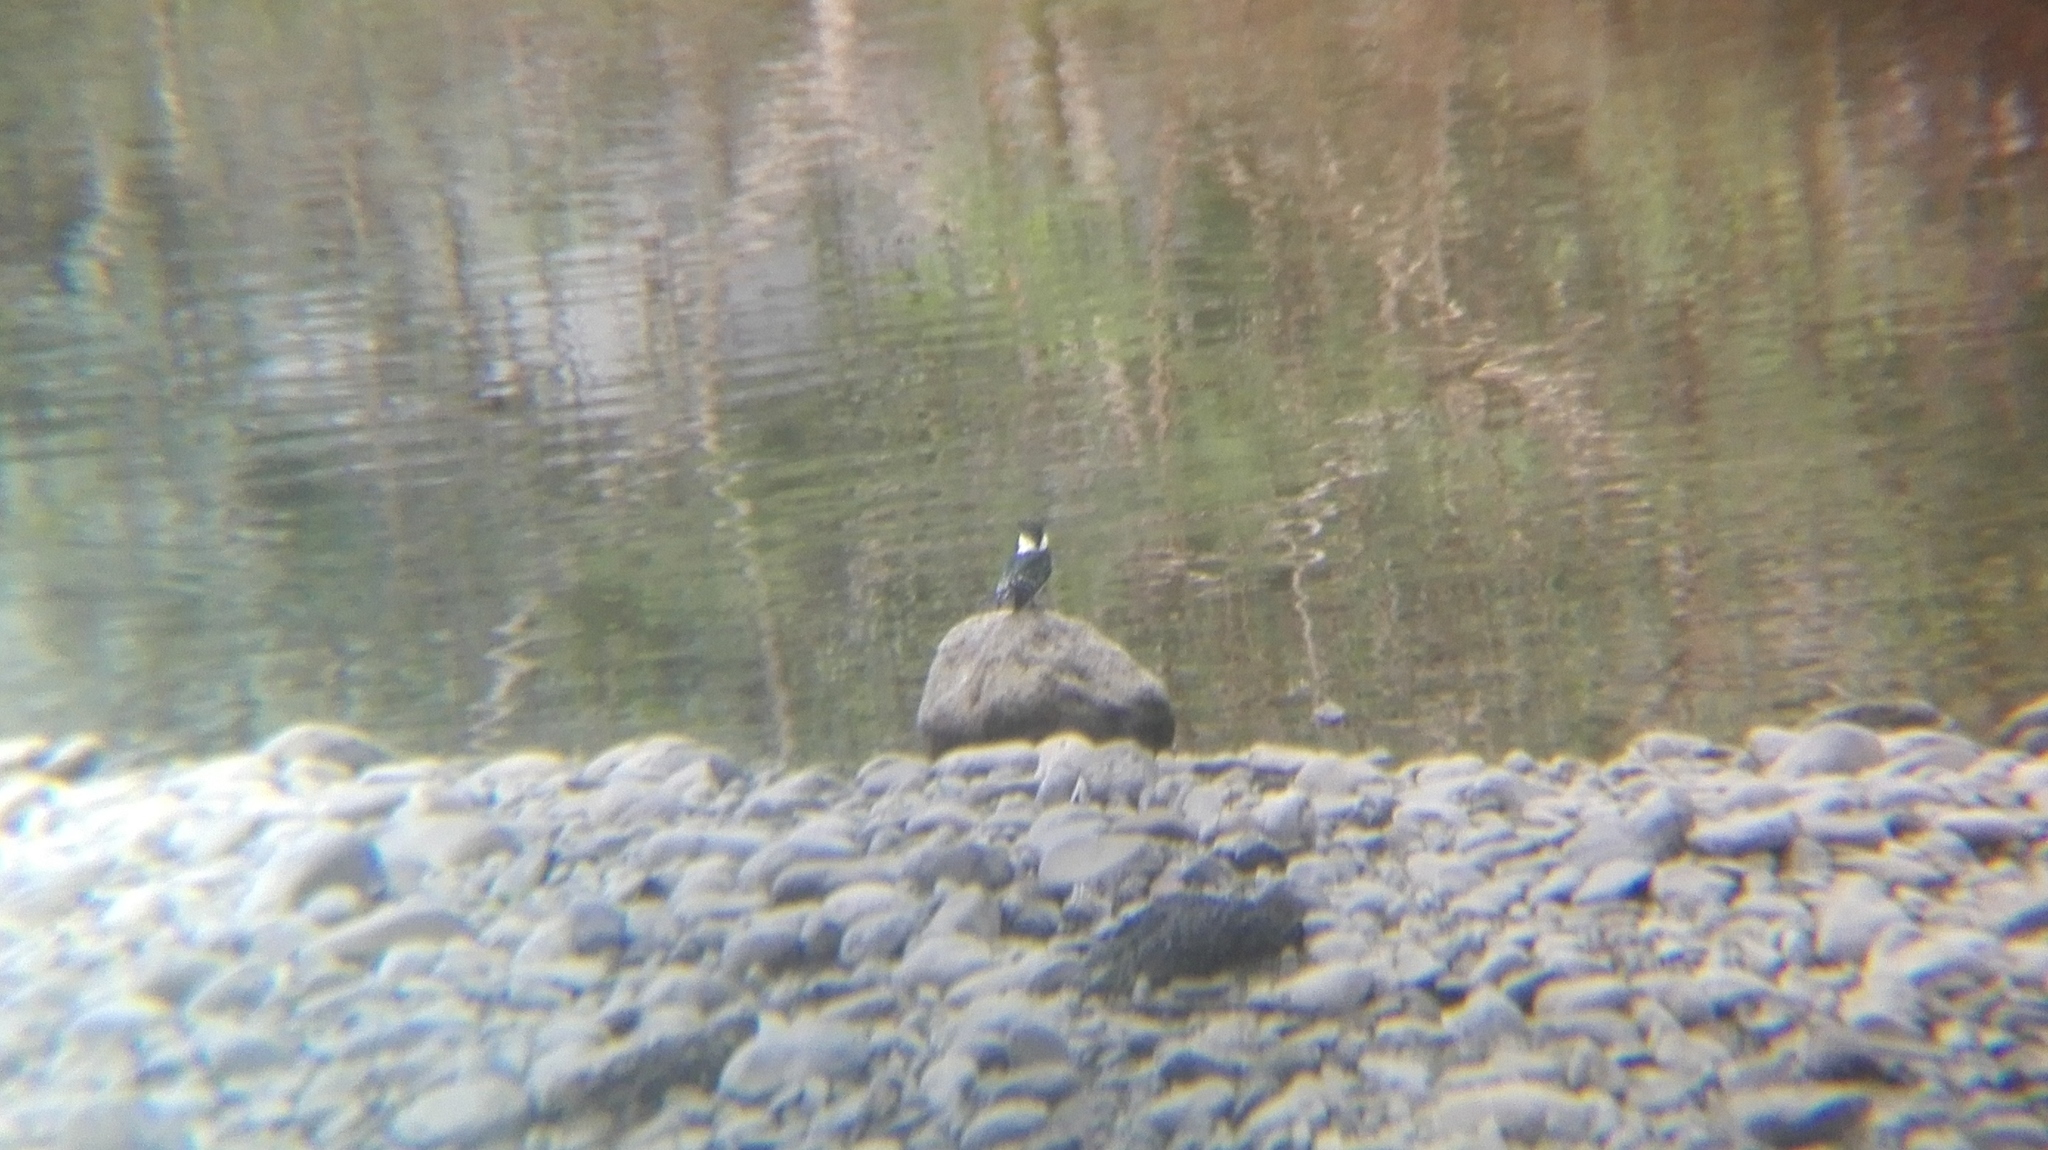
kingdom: Animalia
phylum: Chordata
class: Aves
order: Coraciiformes
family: Alcedinidae
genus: Chloroceryle
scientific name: Chloroceryle americana
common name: Green kingfisher
